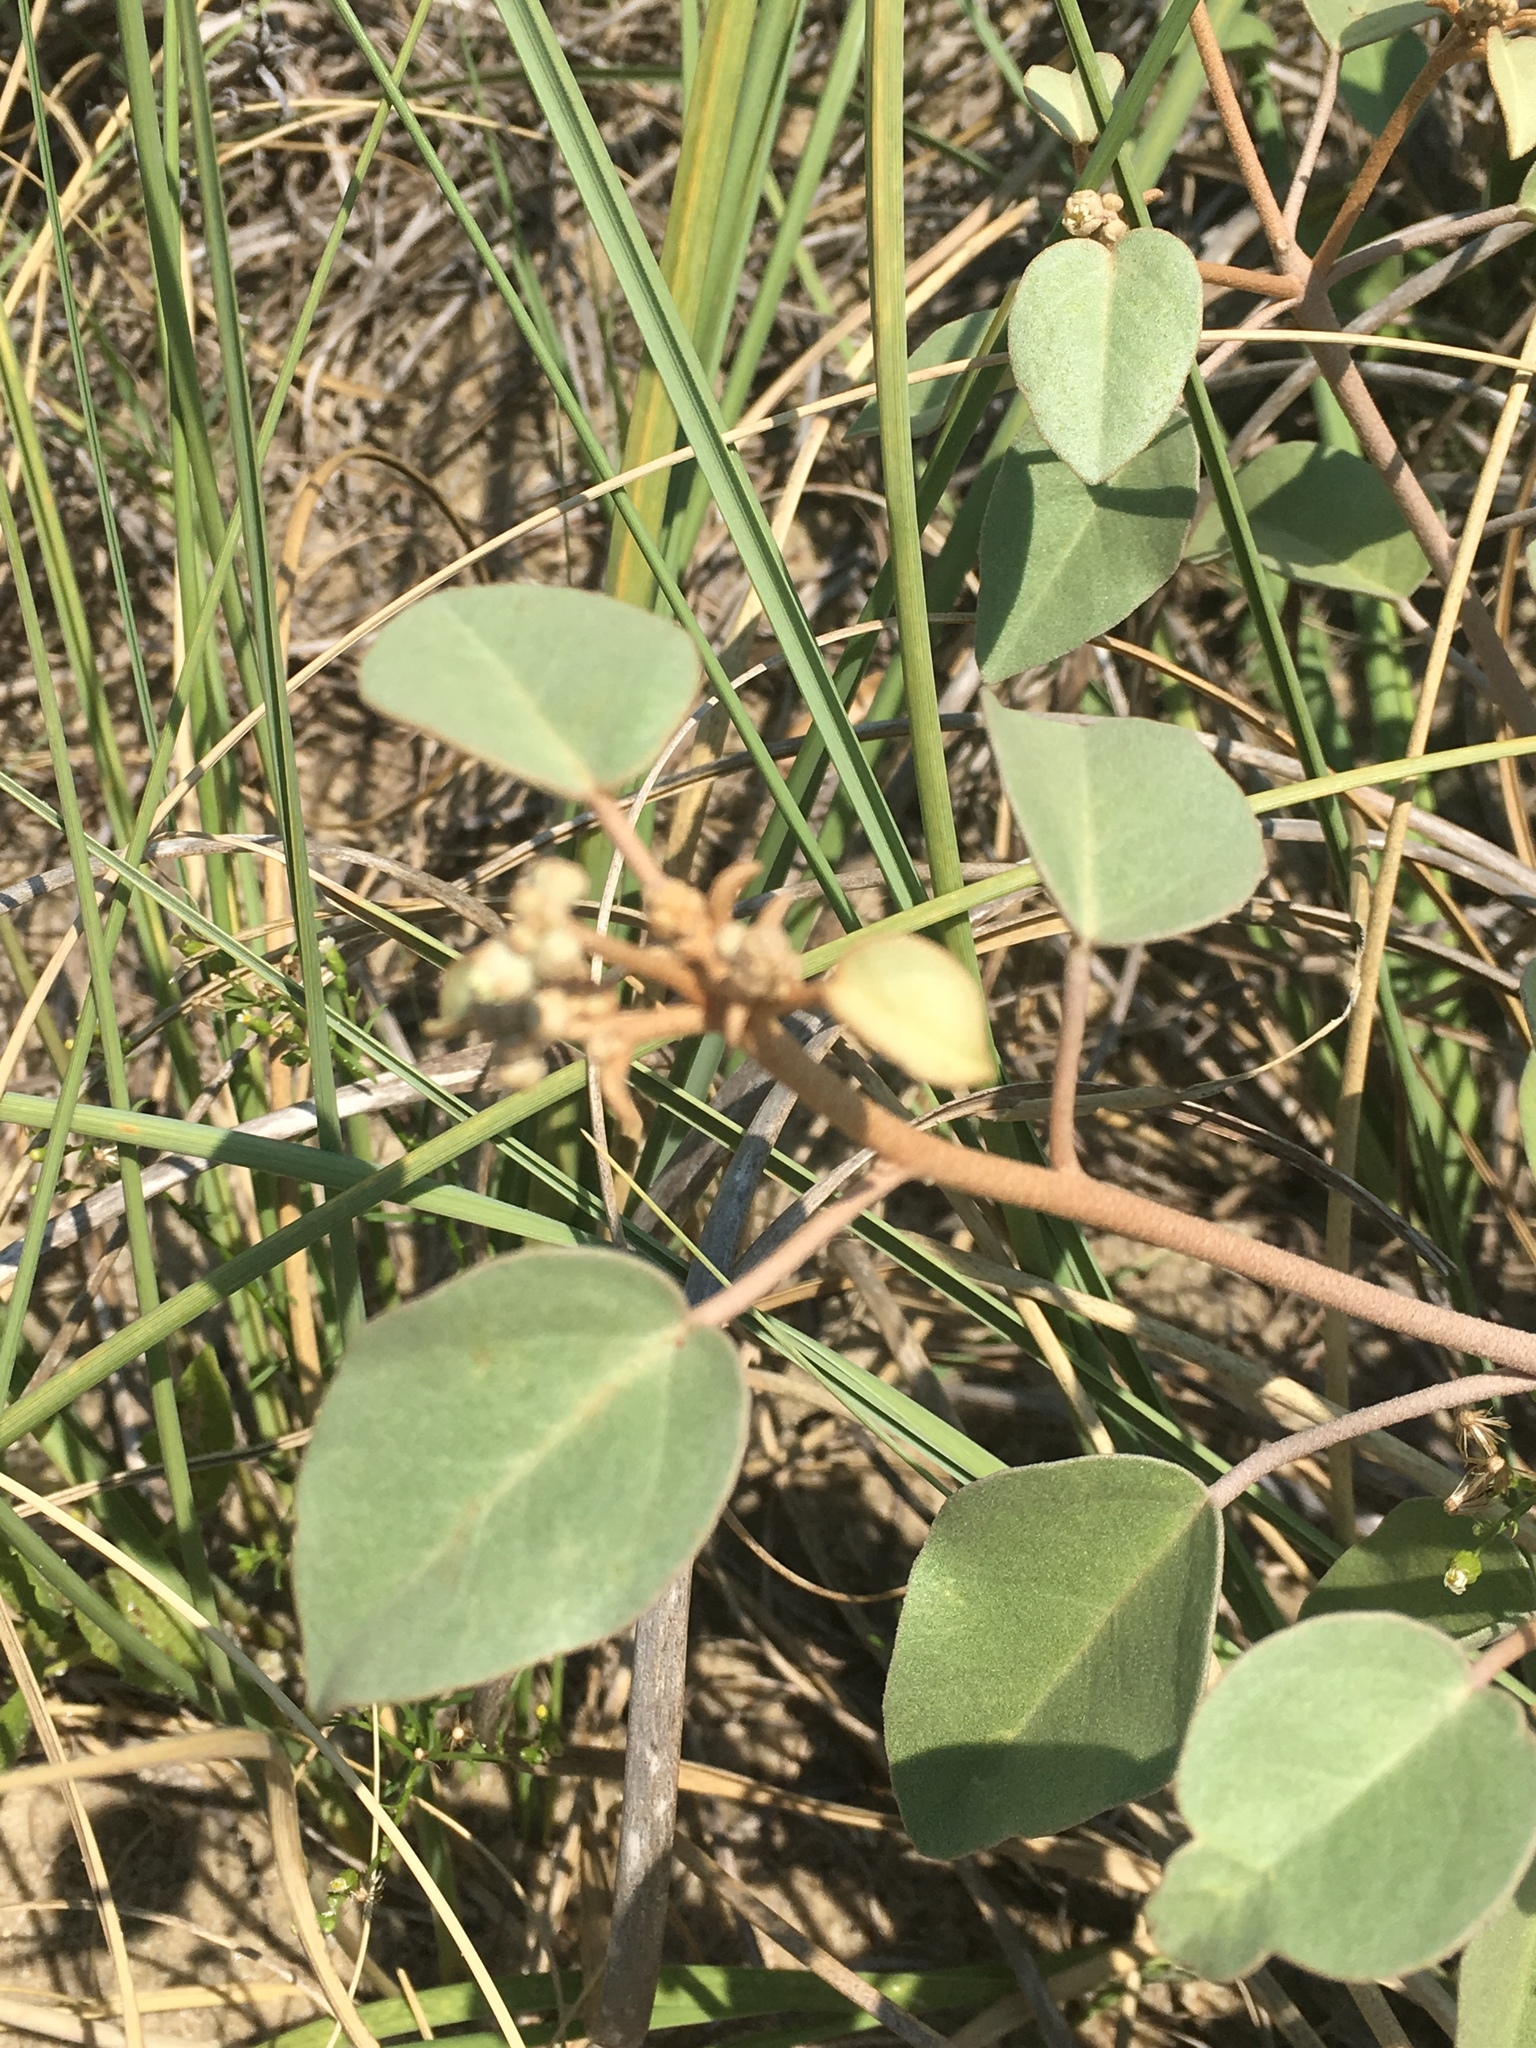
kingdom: Plantae
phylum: Tracheophyta
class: Magnoliopsida
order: Malpighiales
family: Euphorbiaceae
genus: Croton
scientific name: Croton punctatus
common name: Beach-tea
